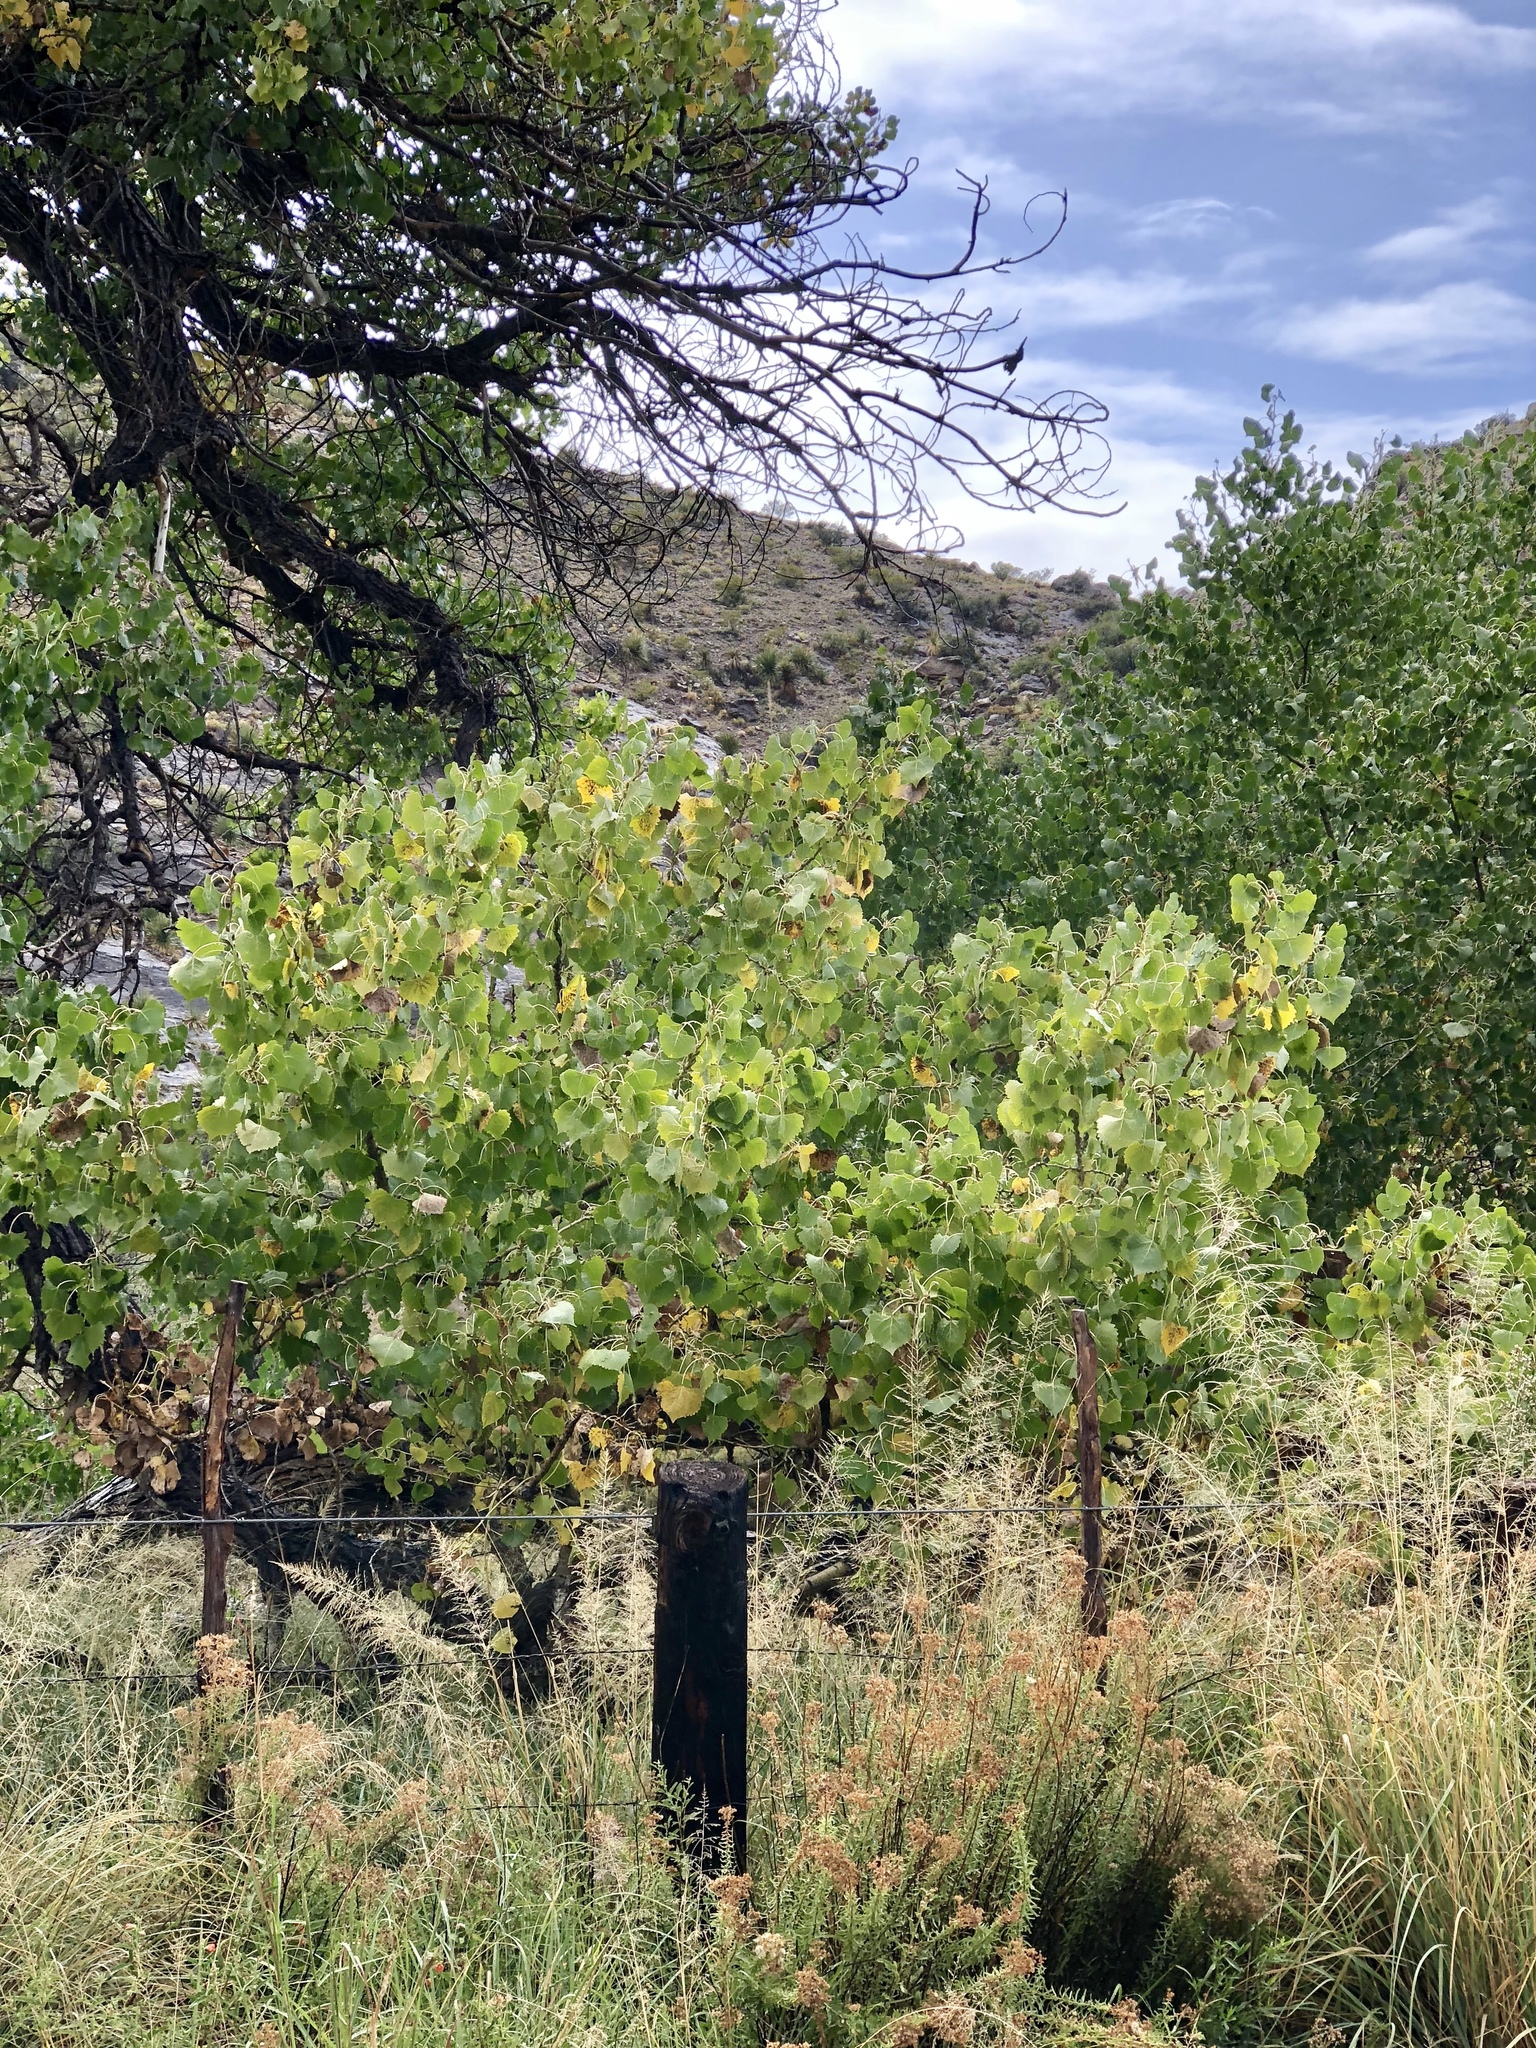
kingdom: Plantae
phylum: Tracheophyta
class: Magnoliopsida
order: Malpighiales
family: Salicaceae
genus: Populus
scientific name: Populus fremontii
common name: Fremont's cottonwood
